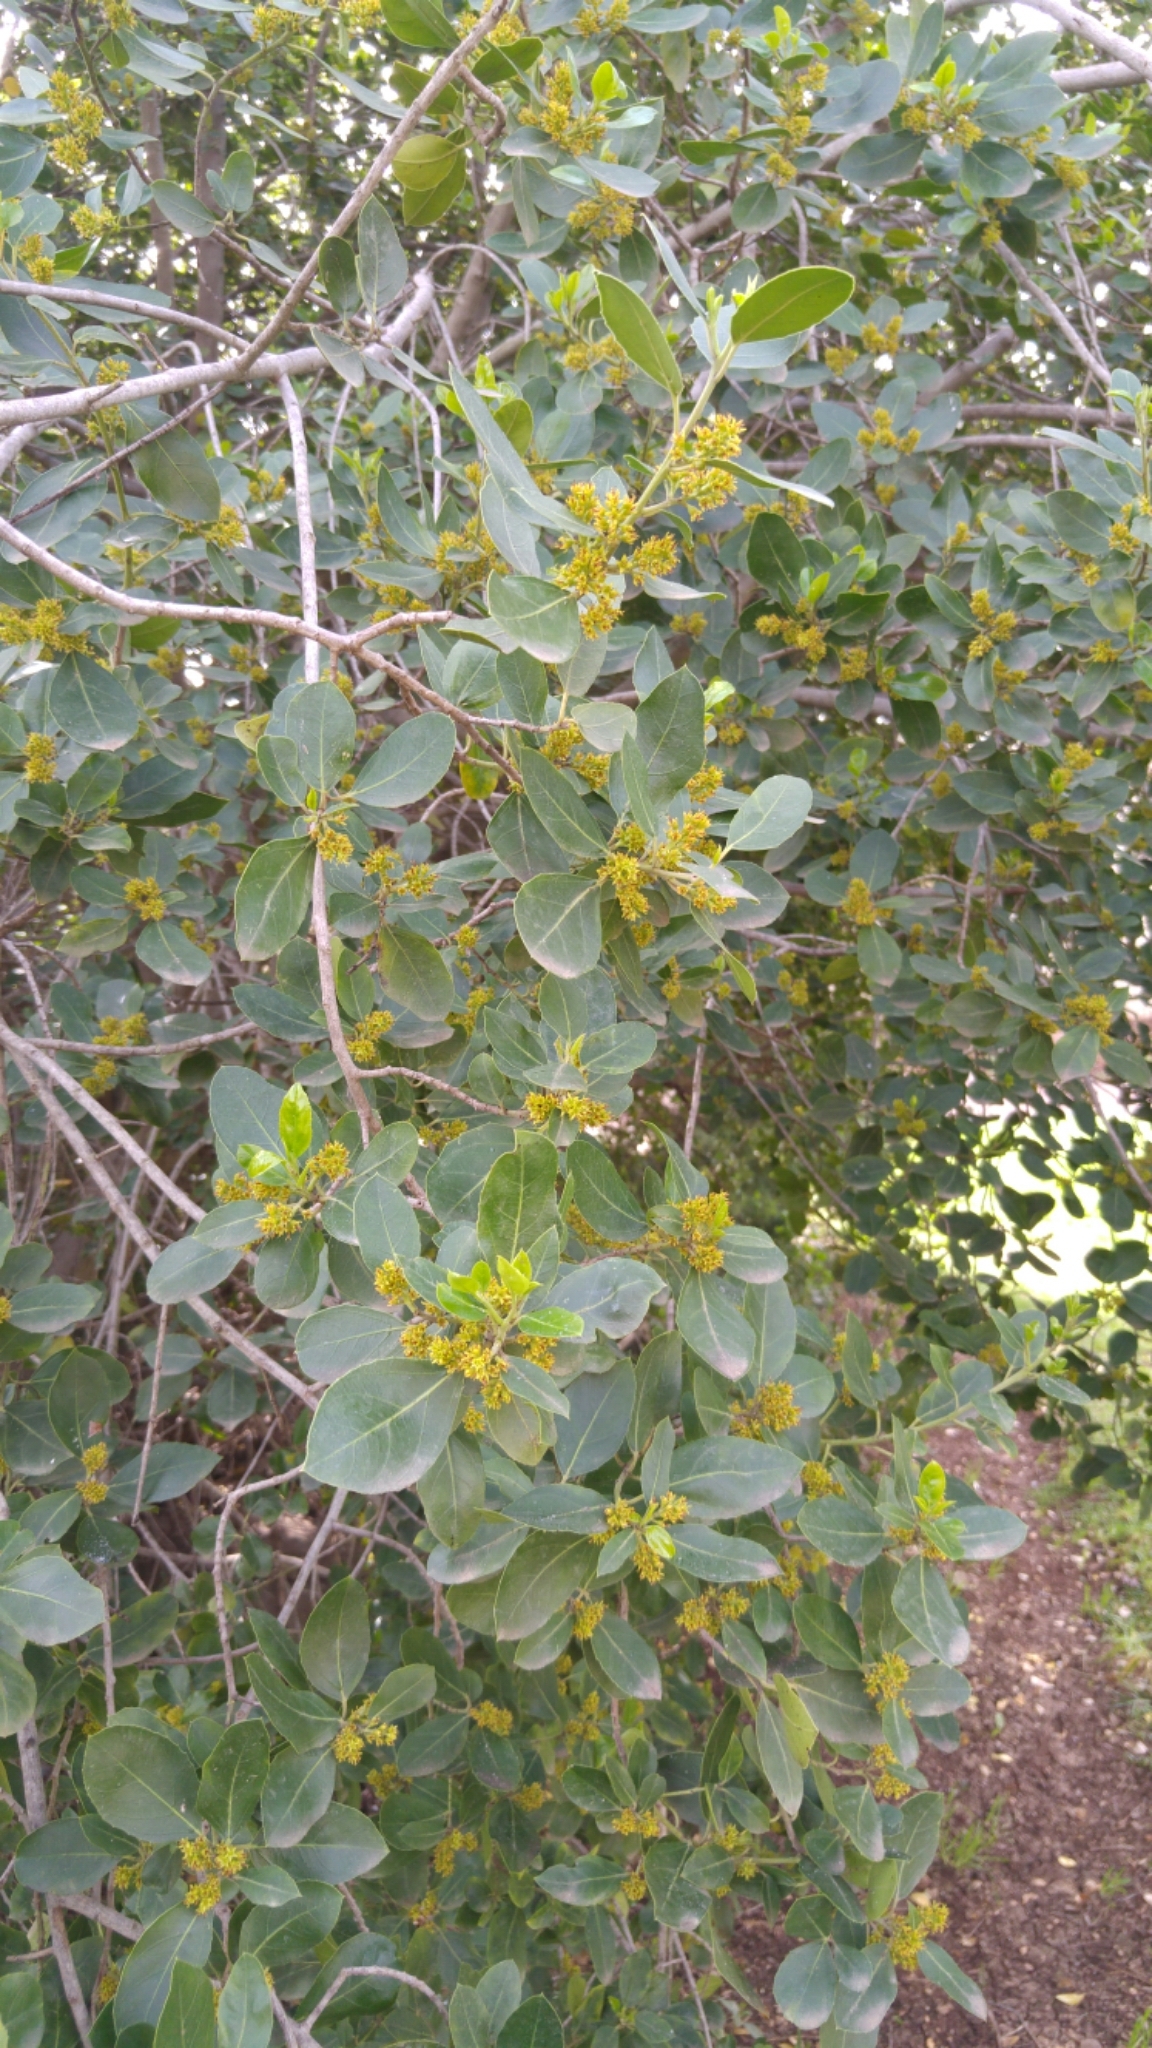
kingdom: Plantae
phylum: Tracheophyta
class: Magnoliopsida
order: Rosales
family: Rhamnaceae
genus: Rhamnus
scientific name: Rhamnus alaternus
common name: Mediterranean buckthorn
